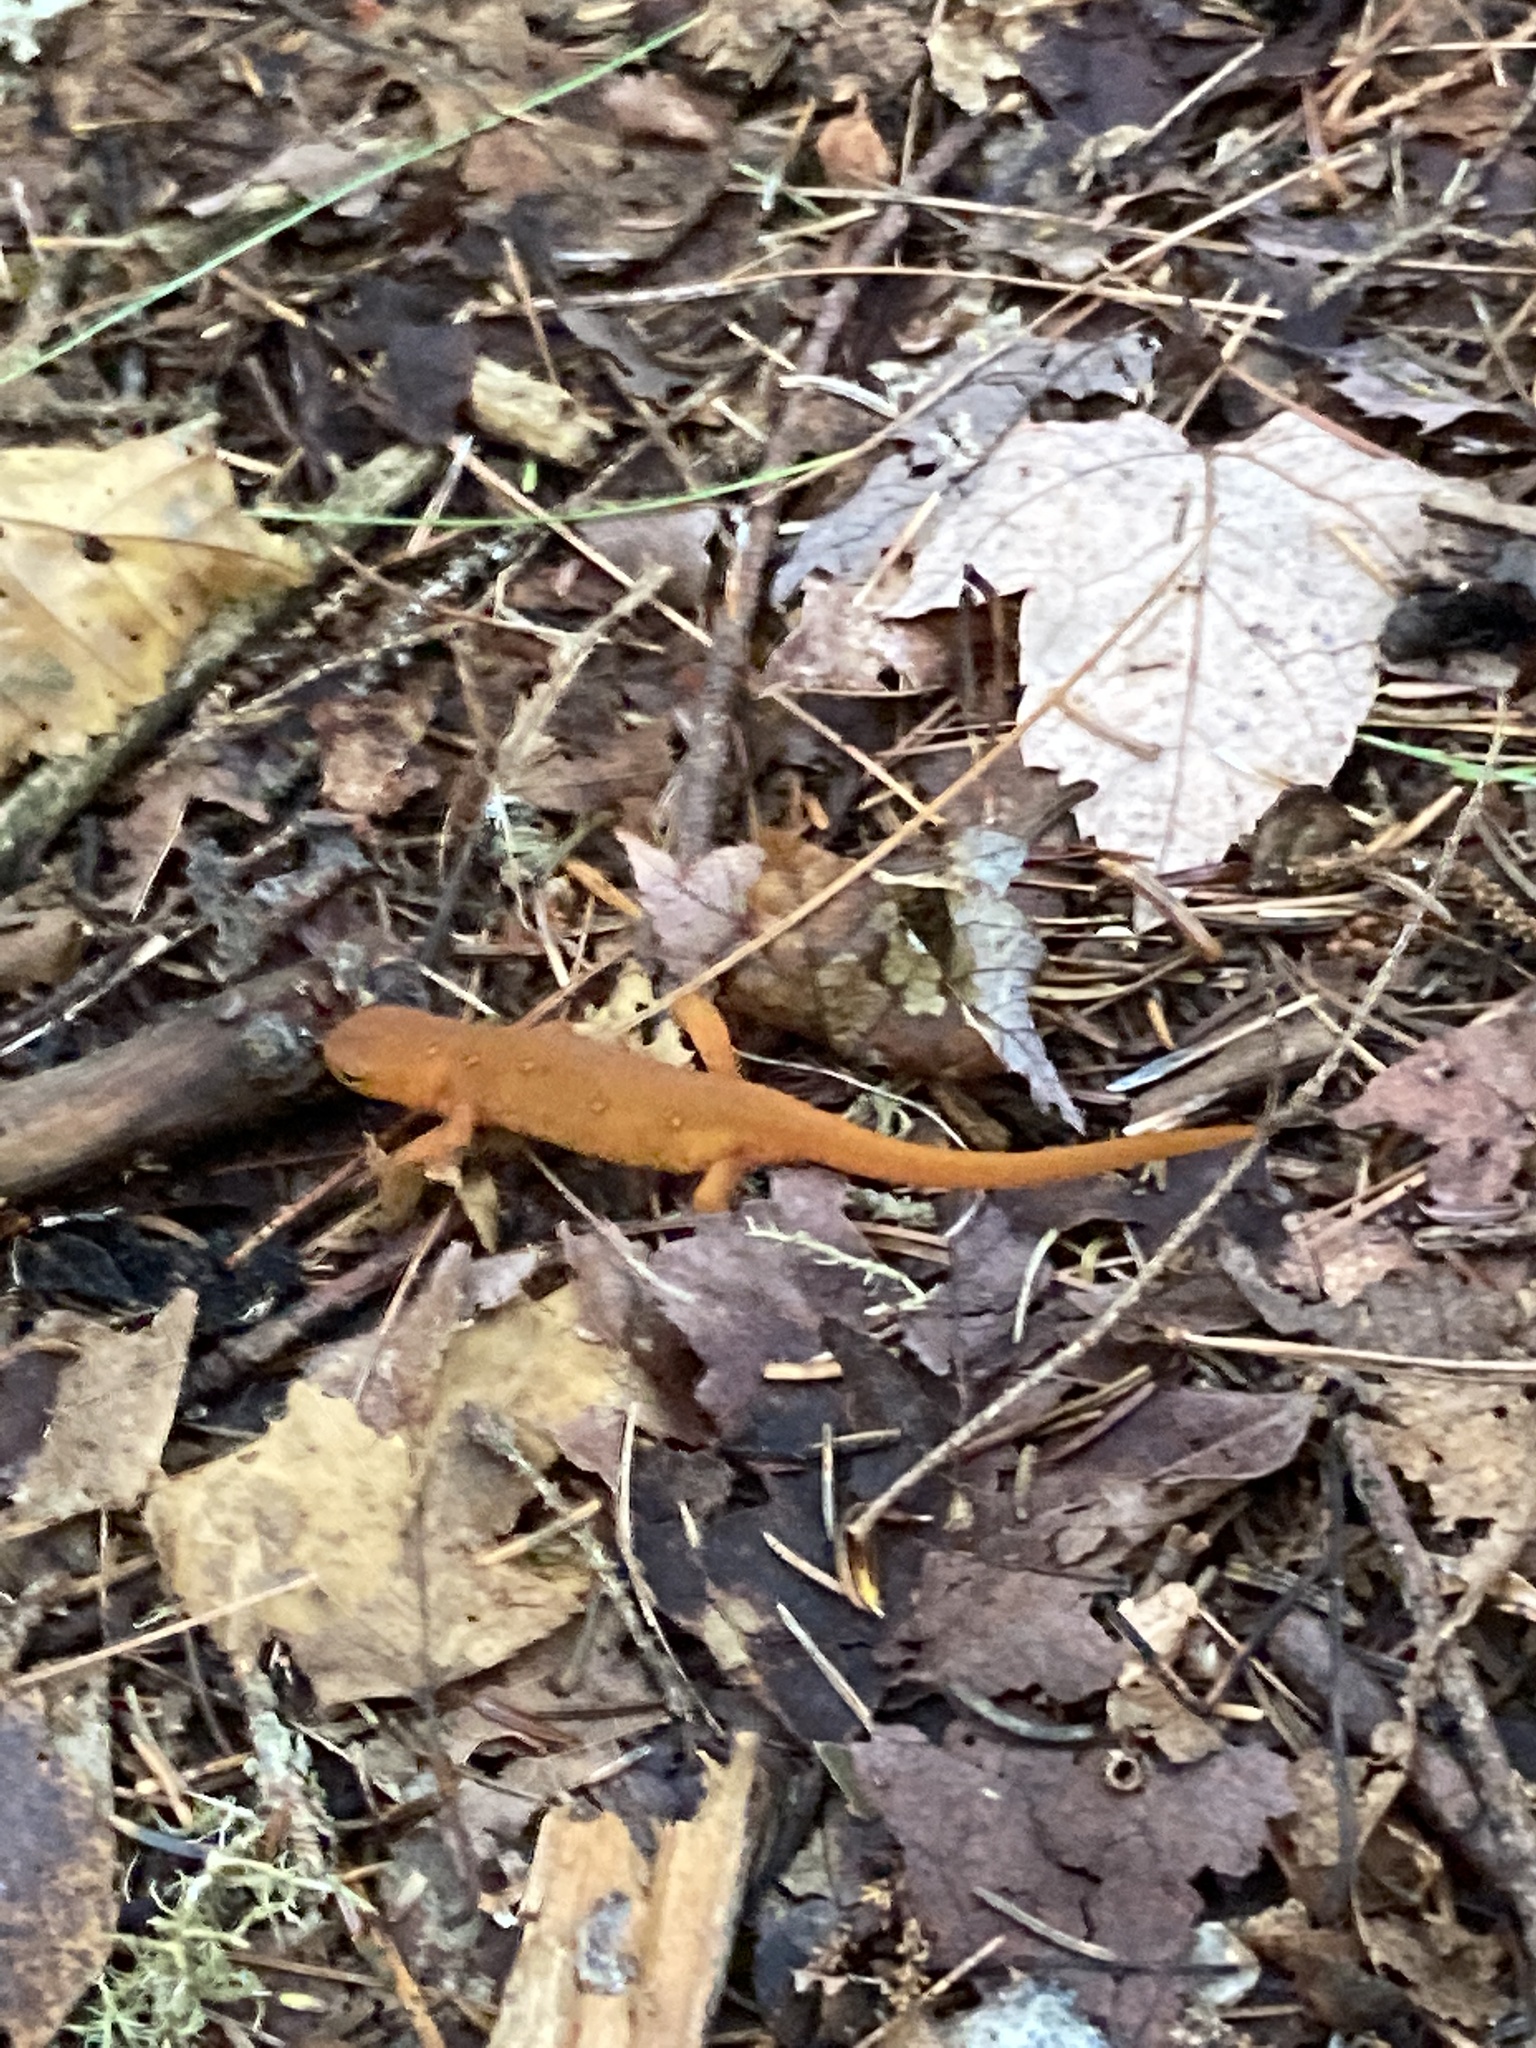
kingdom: Animalia
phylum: Chordata
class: Amphibia
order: Caudata
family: Salamandridae
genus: Notophthalmus
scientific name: Notophthalmus viridescens
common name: Eastern newt
